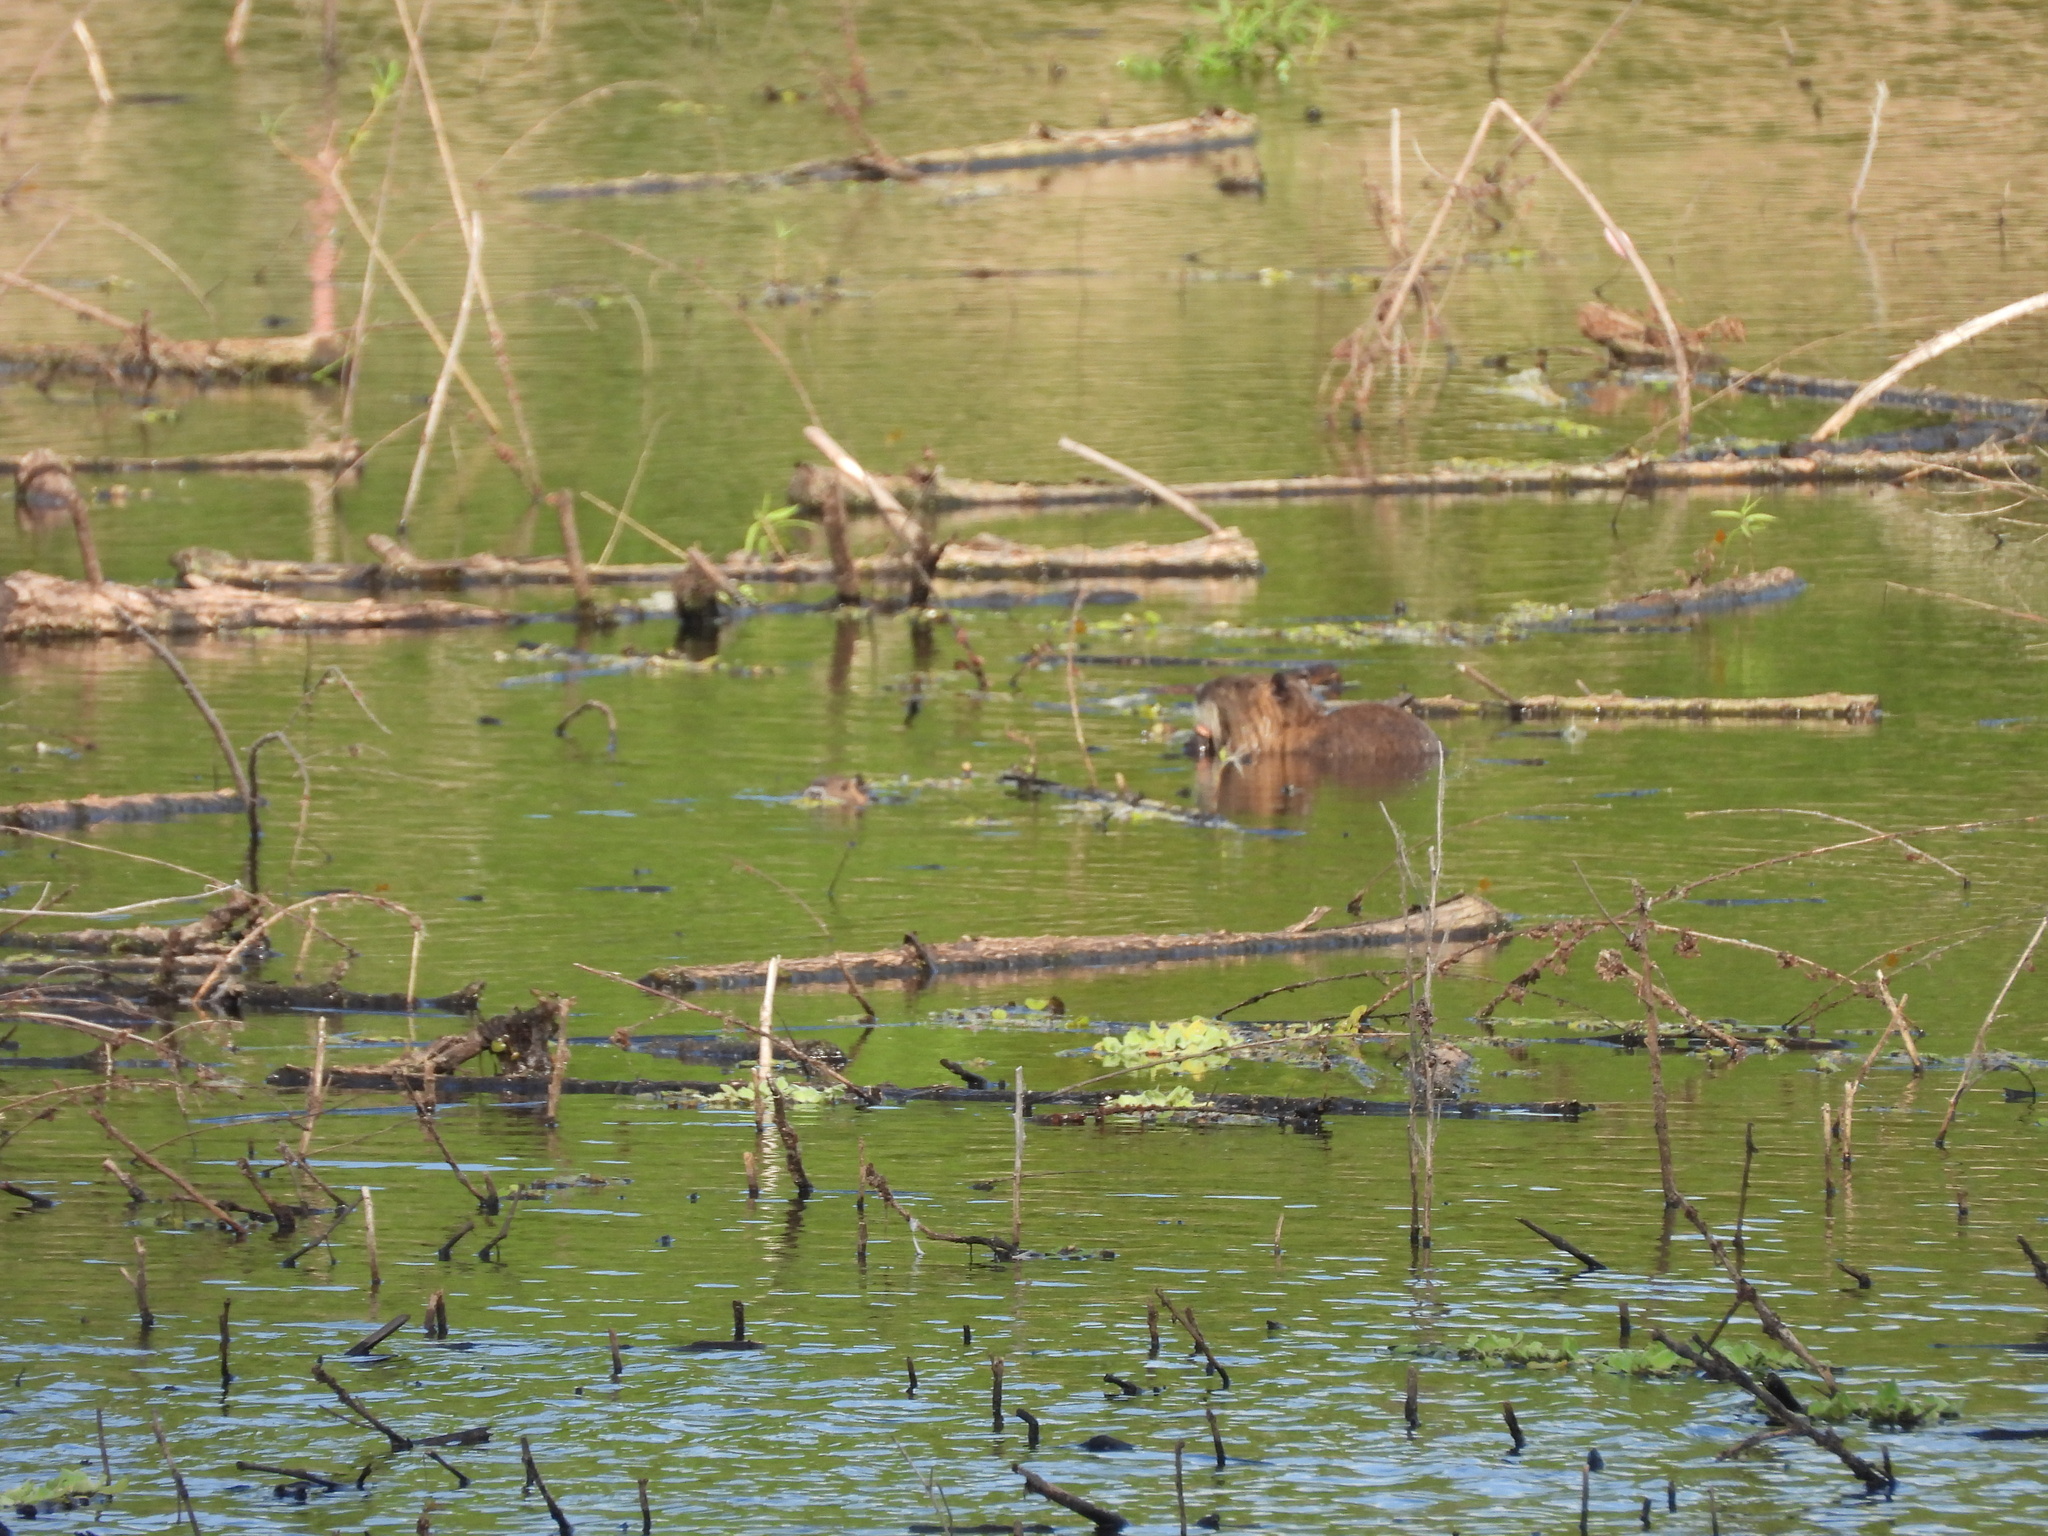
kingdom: Animalia
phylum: Chordata
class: Mammalia
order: Rodentia
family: Myocastoridae
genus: Myocastor
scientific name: Myocastor coypus
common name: Coypu
